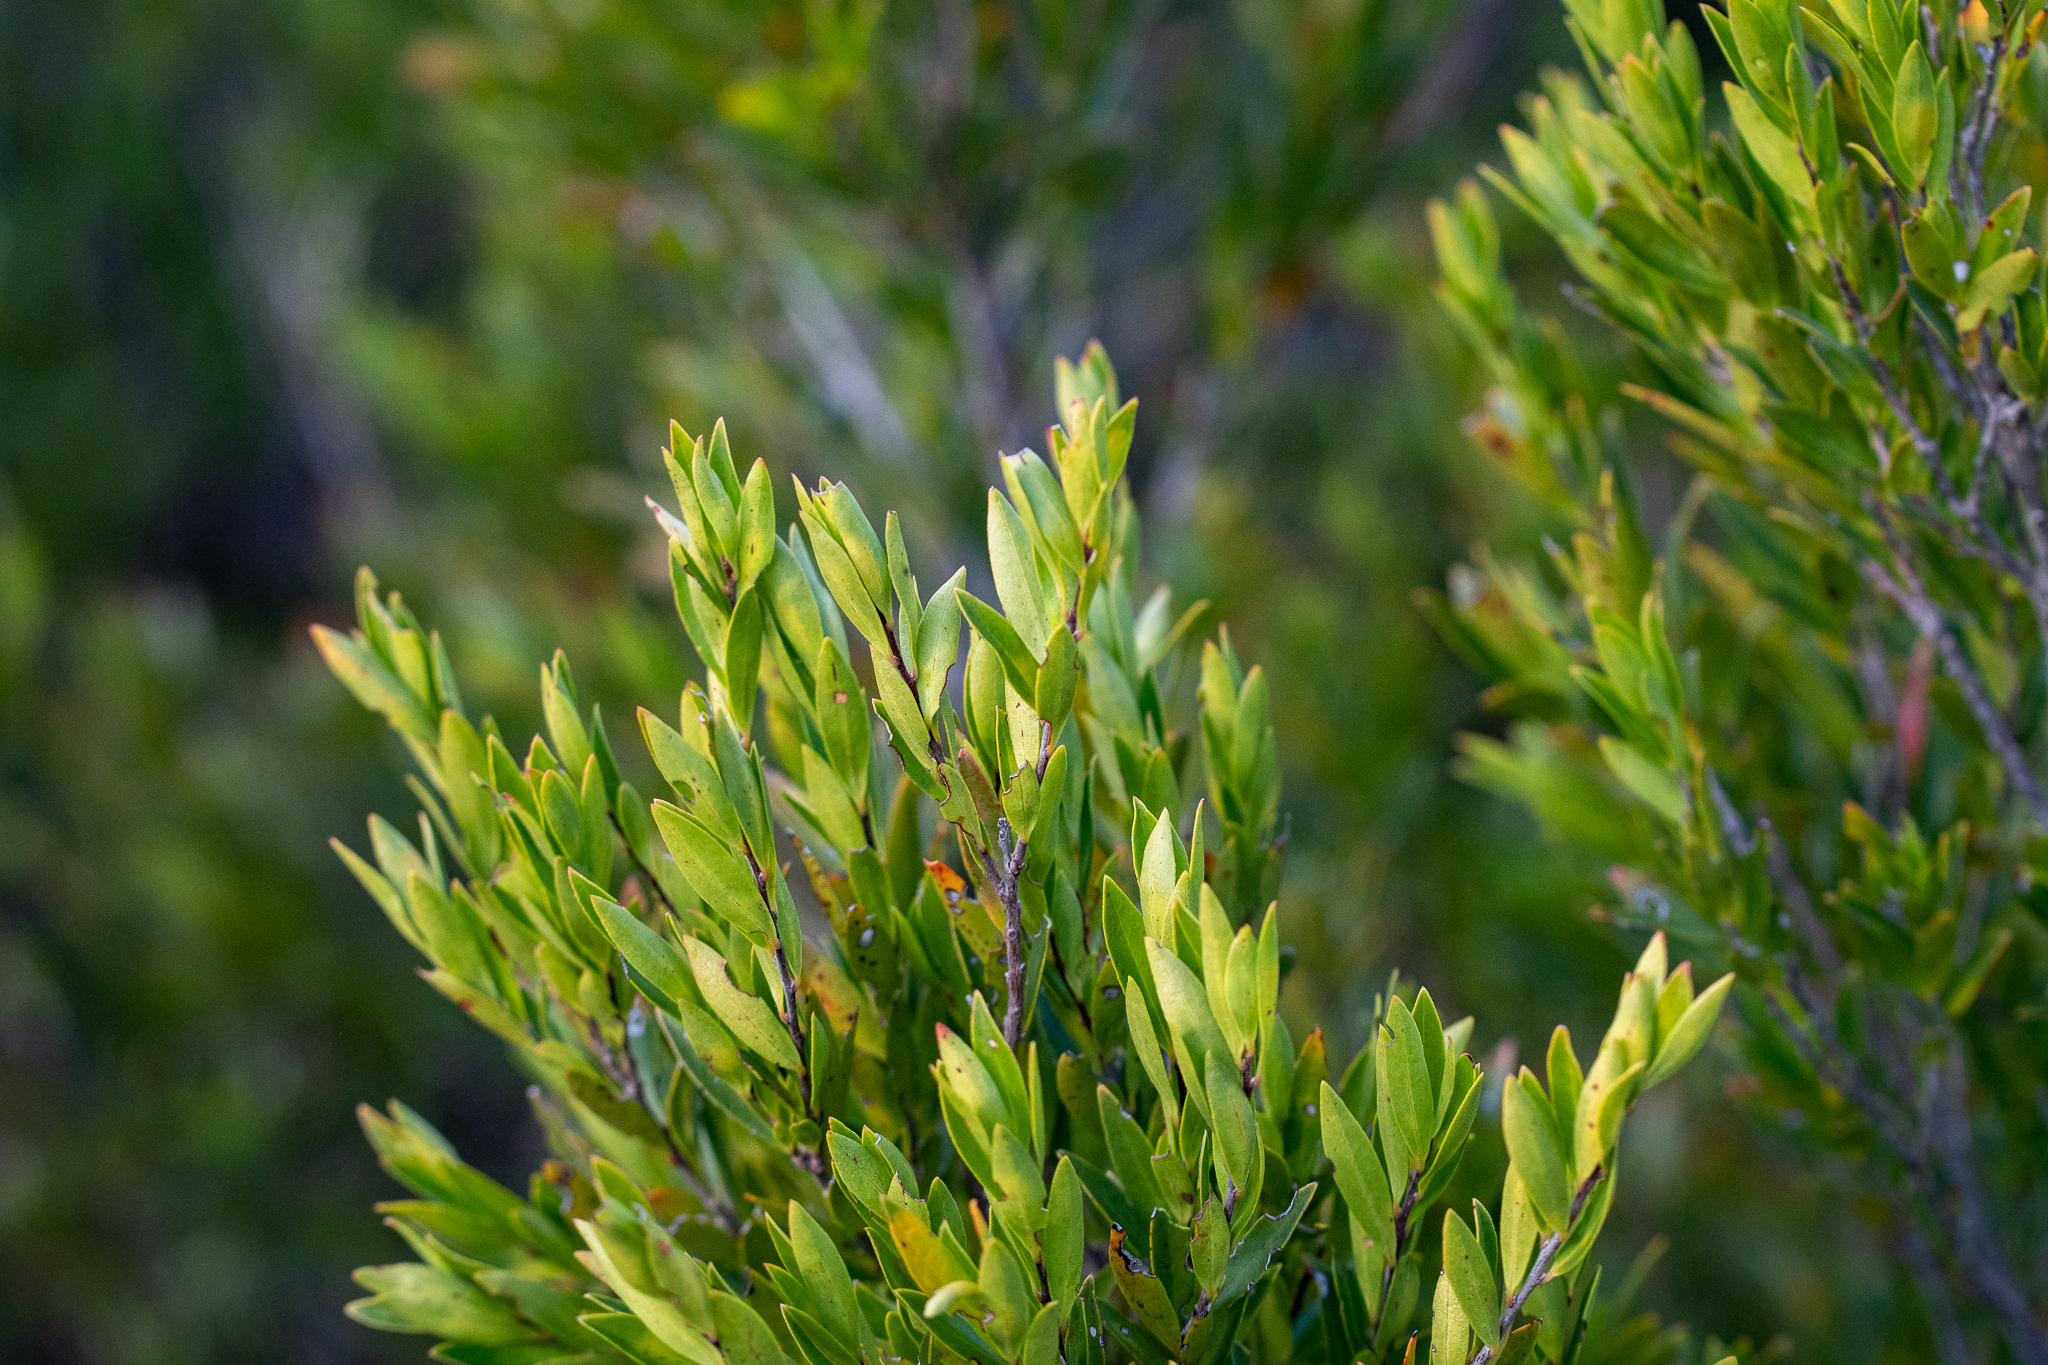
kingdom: Plantae
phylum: Tracheophyta
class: Magnoliopsida
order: Ericales
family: Ebenaceae
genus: Diospyros
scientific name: Diospyros glabra
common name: Fynbos star apple
